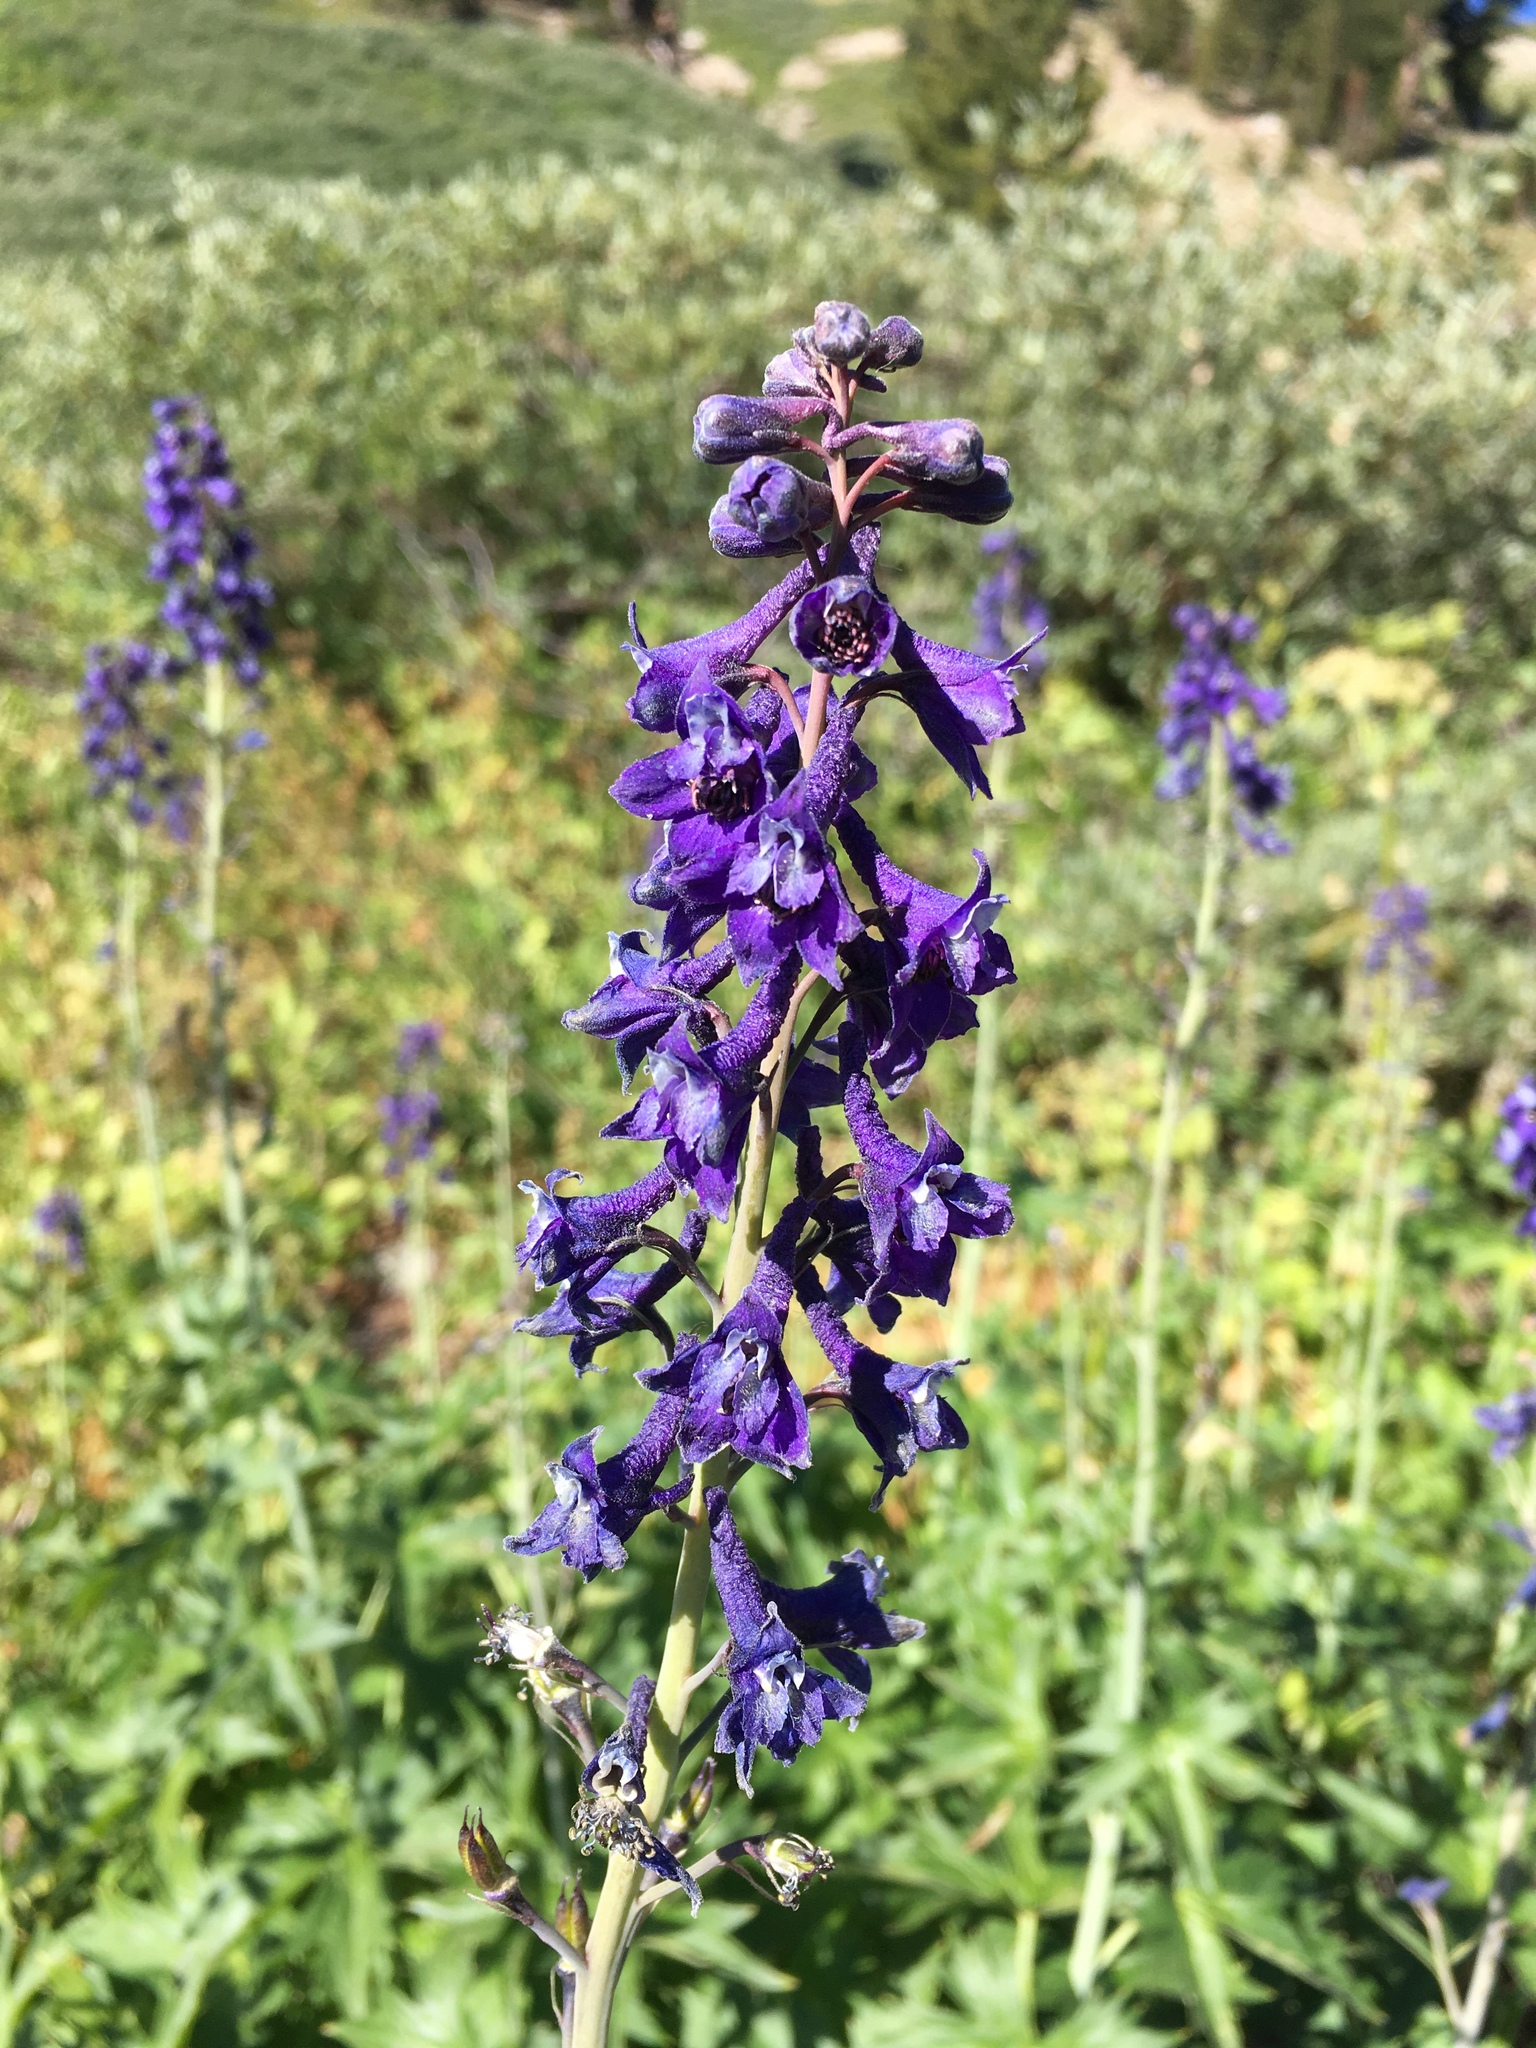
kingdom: Plantae
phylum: Tracheophyta
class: Magnoliopsida
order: Ranunculales
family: Ranunculaceae
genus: Delphinium
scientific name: Delphinium glaucum
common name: Brown's larkspur
